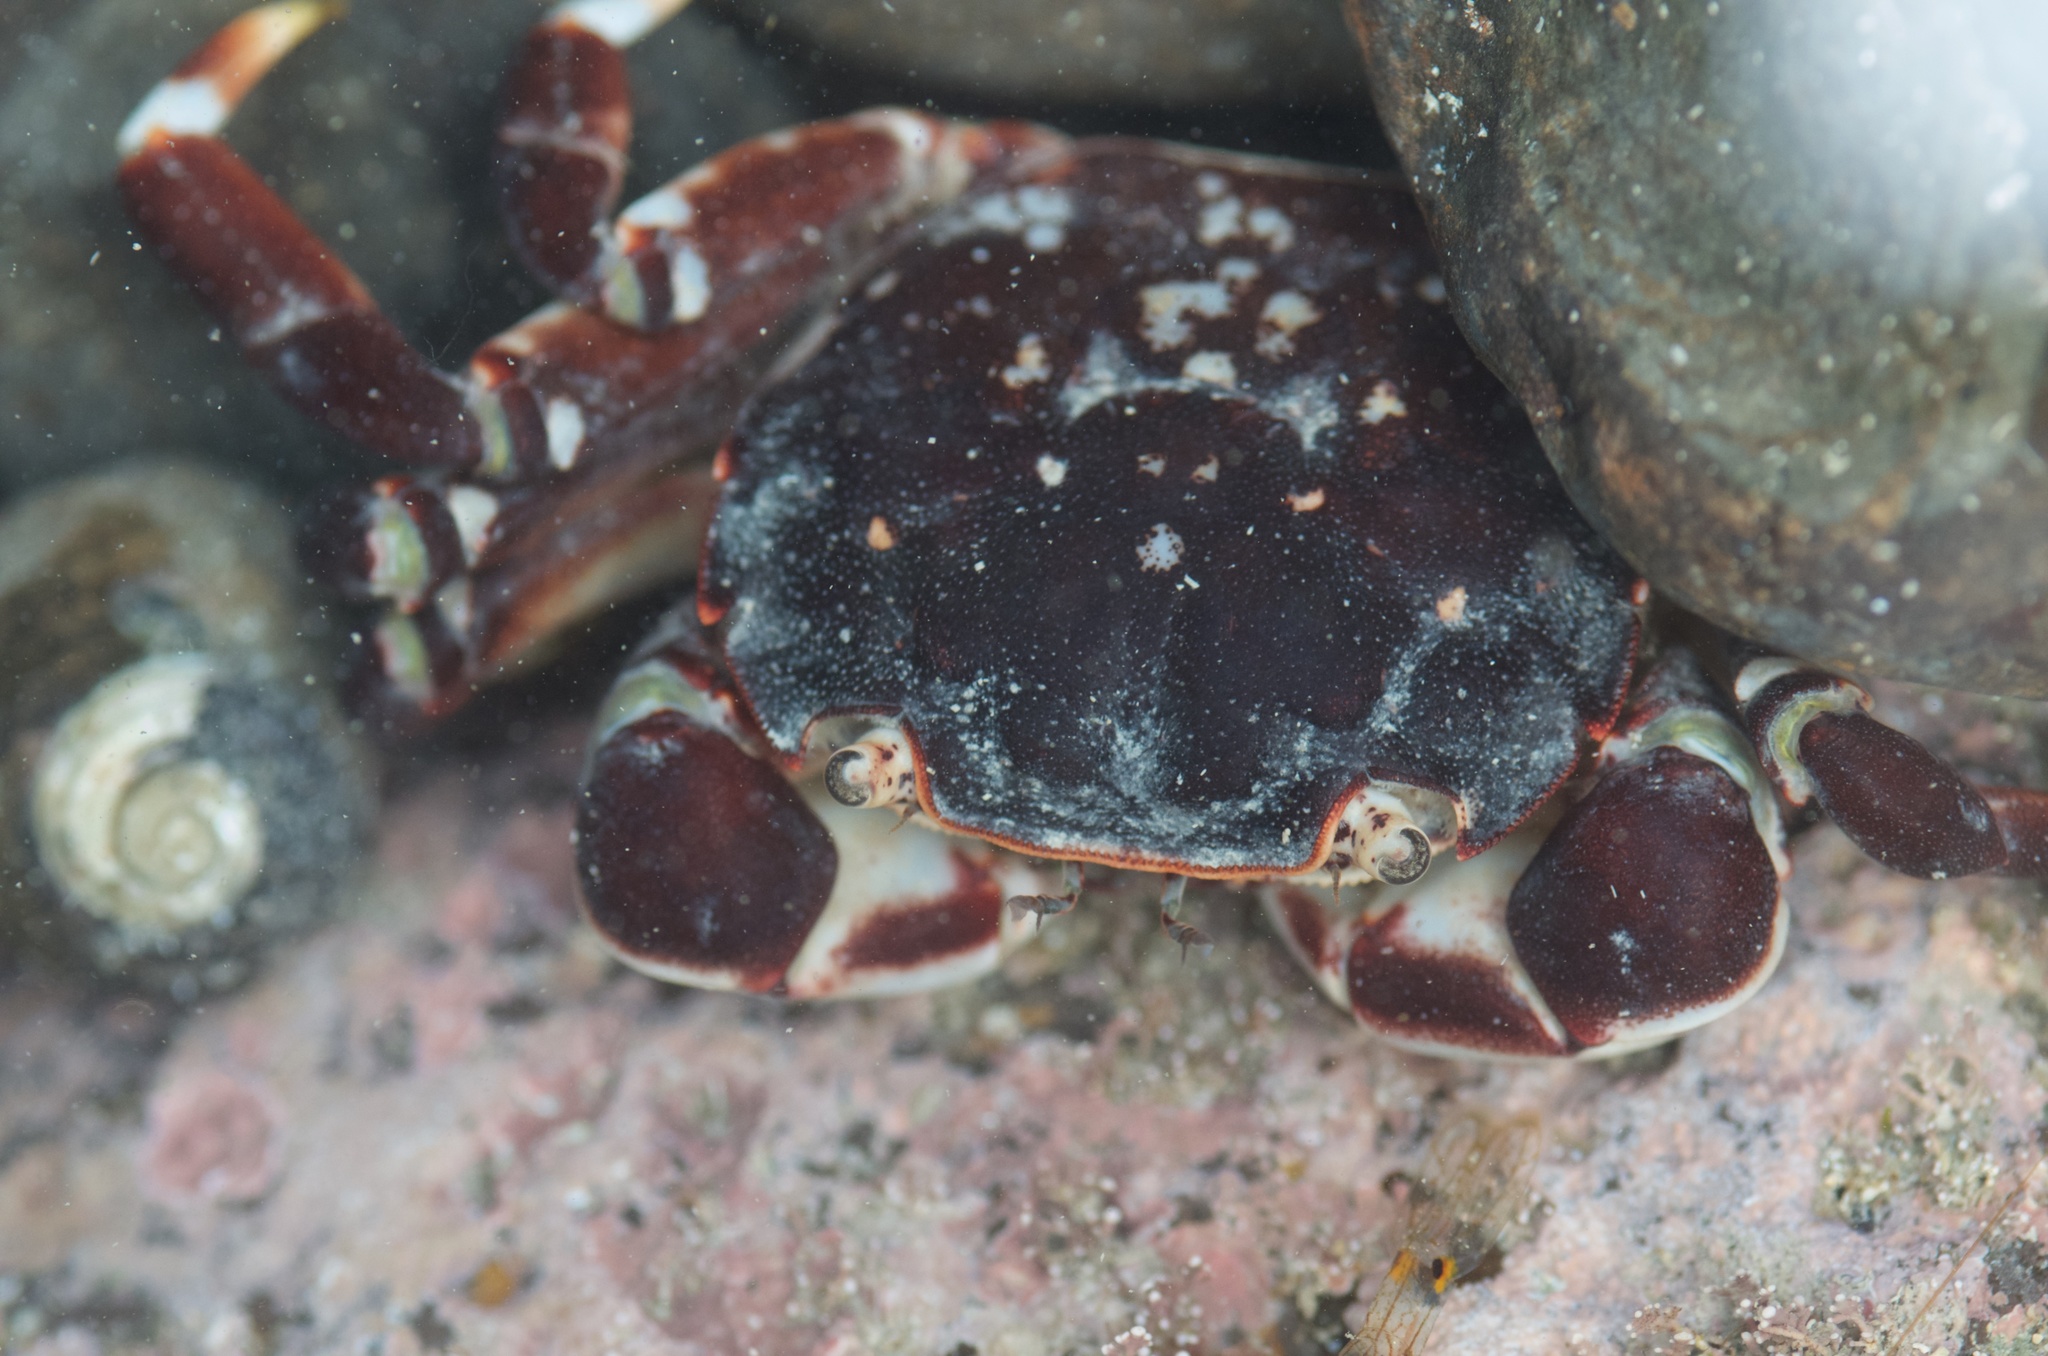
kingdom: Animalia
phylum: Arthropoda
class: Malacostraca
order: Decapoda
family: Varunidae
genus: Hemigrapsus
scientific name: Hemigrapsus sexdentatus
